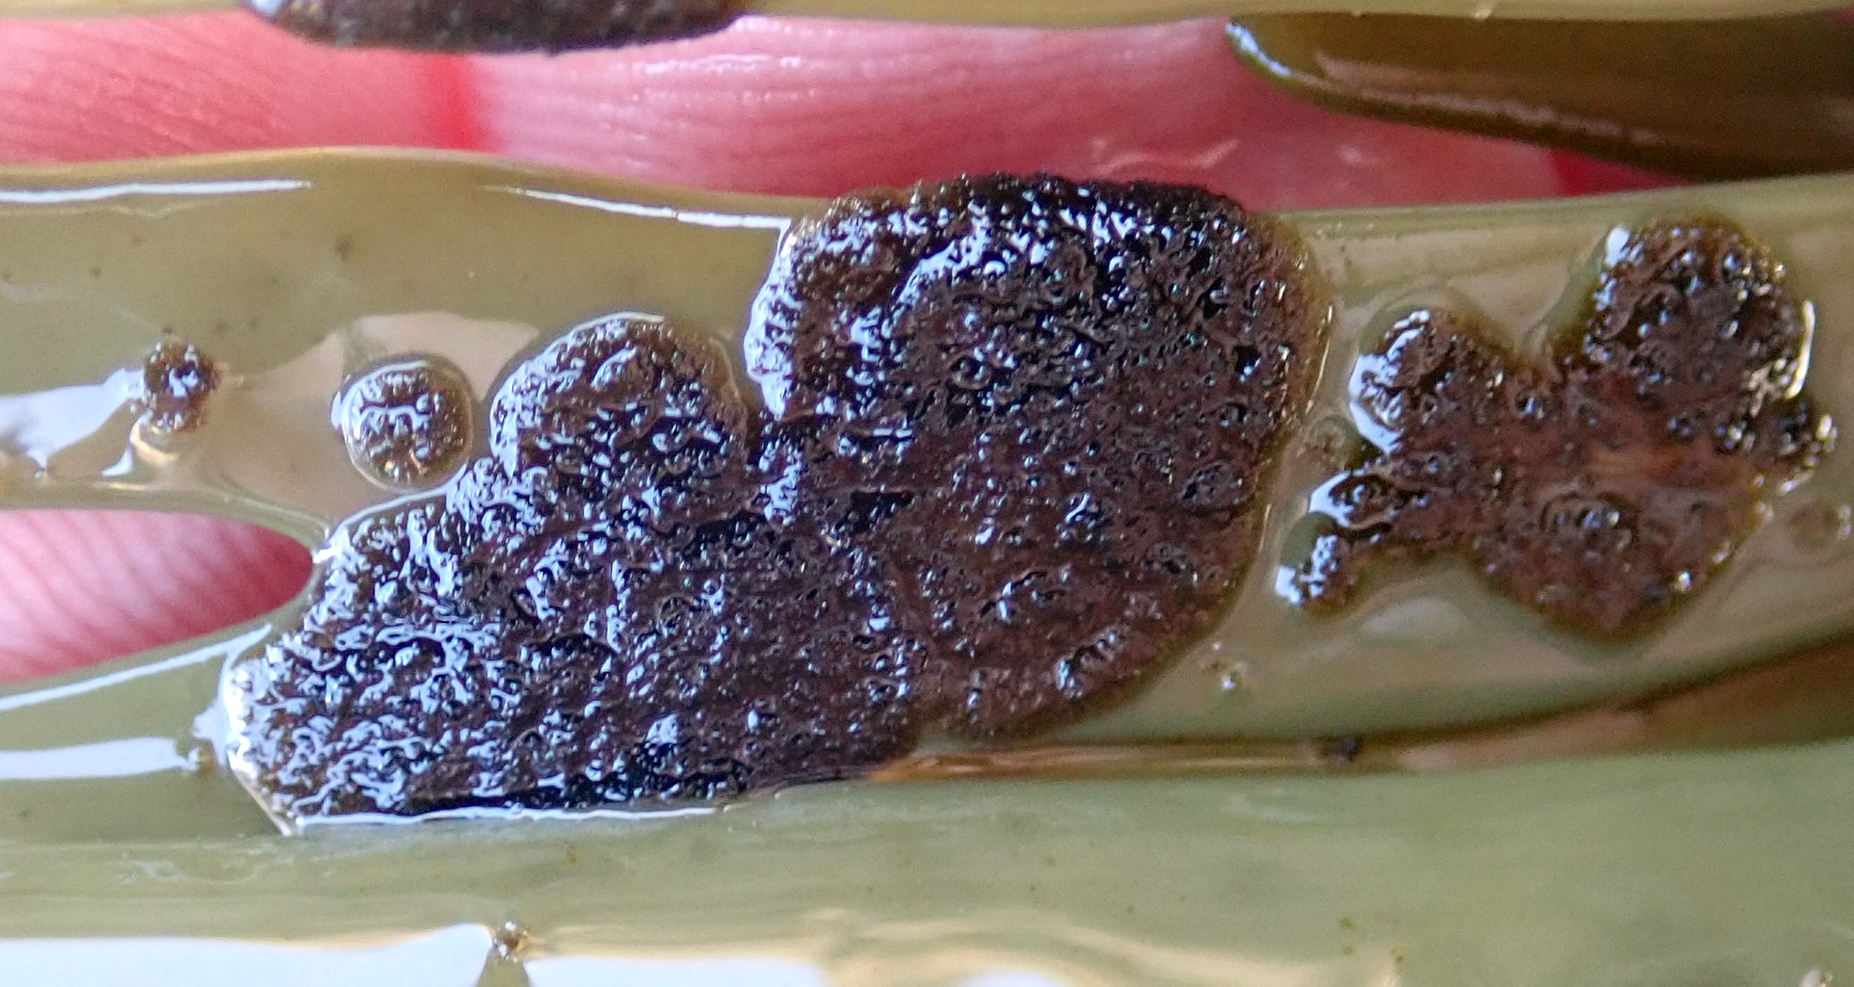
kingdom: Chromista
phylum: Ochrophyta
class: Phaeophyceae
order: Ectocarpales
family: Chordariaceae
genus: Elachista
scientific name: Elachista australis
